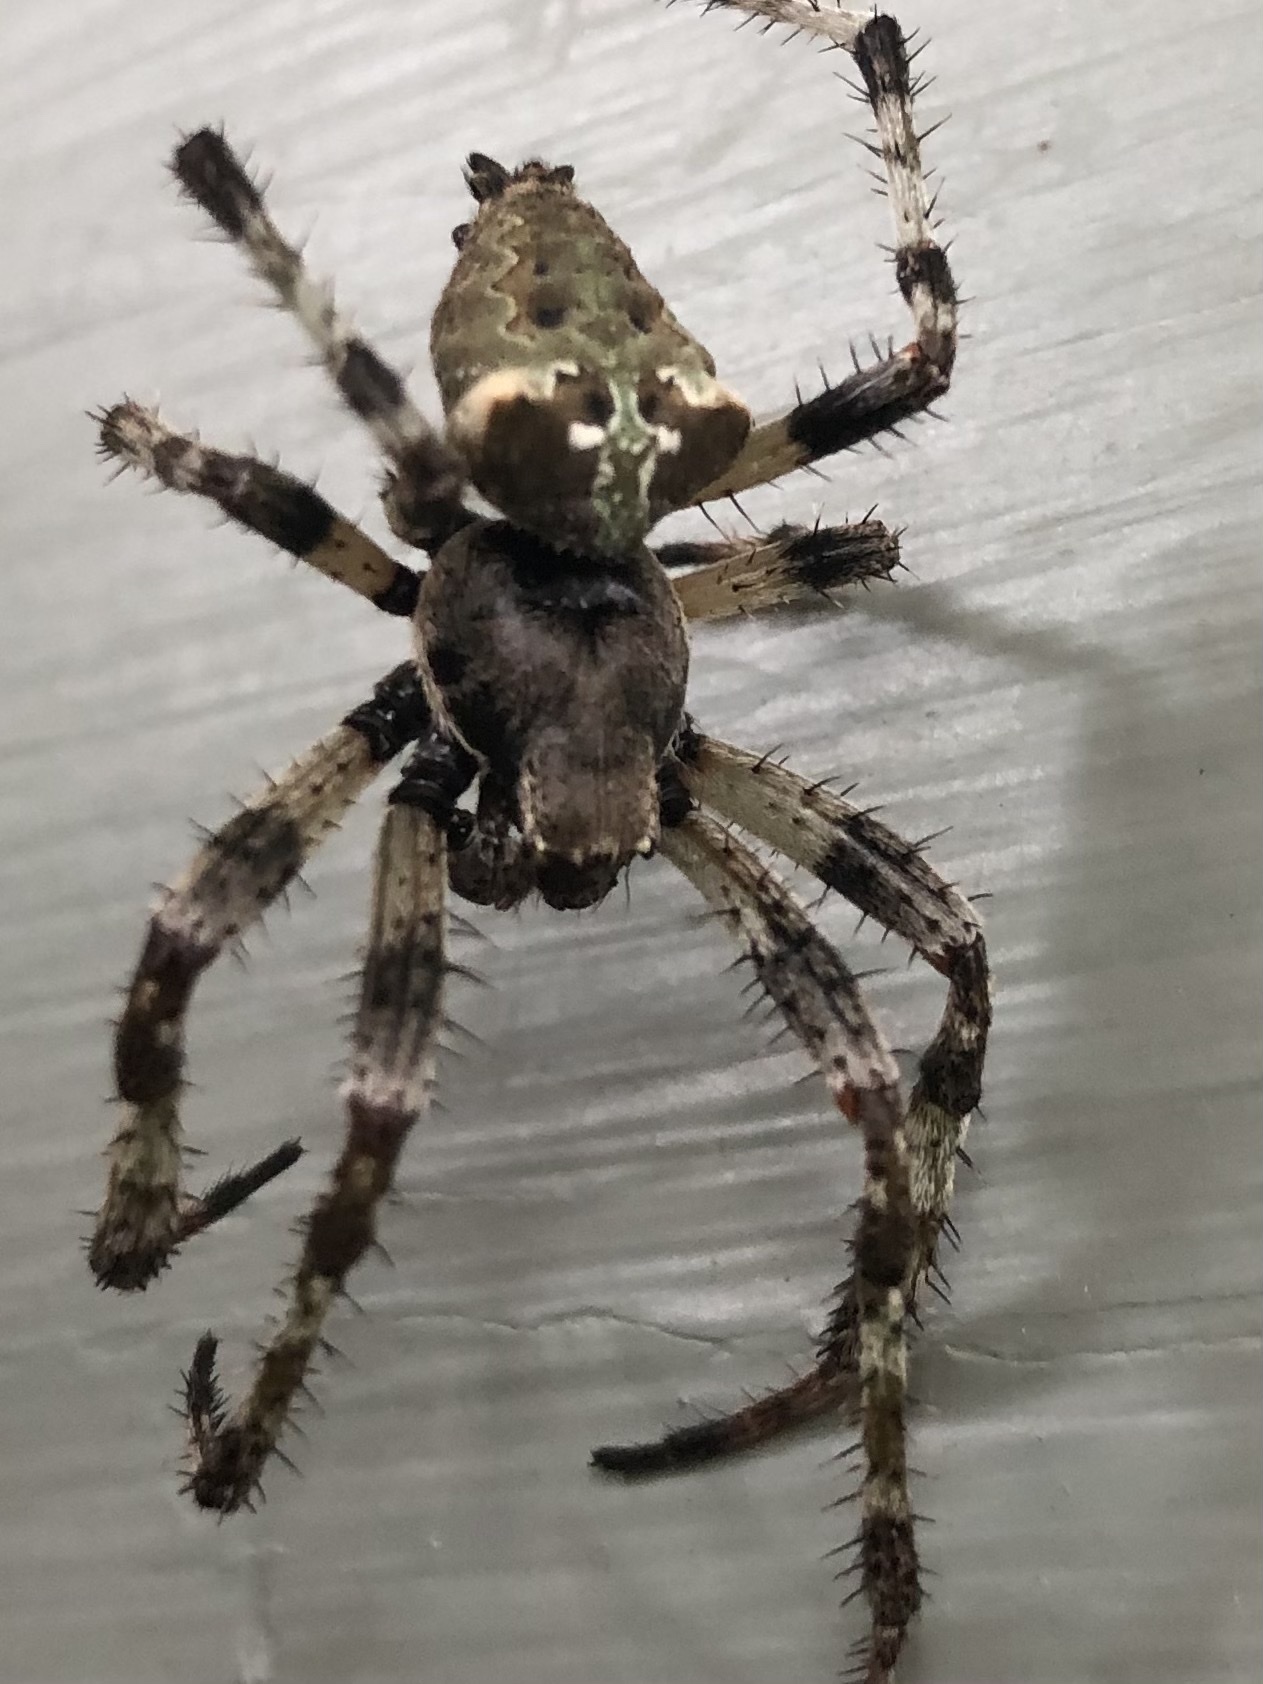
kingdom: Animalia
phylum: Arthropoda
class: Arachnida
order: Araneae
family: Araneidae
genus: Araneus
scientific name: Araneus bicentenarius
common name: Giant lichen orbweaver
